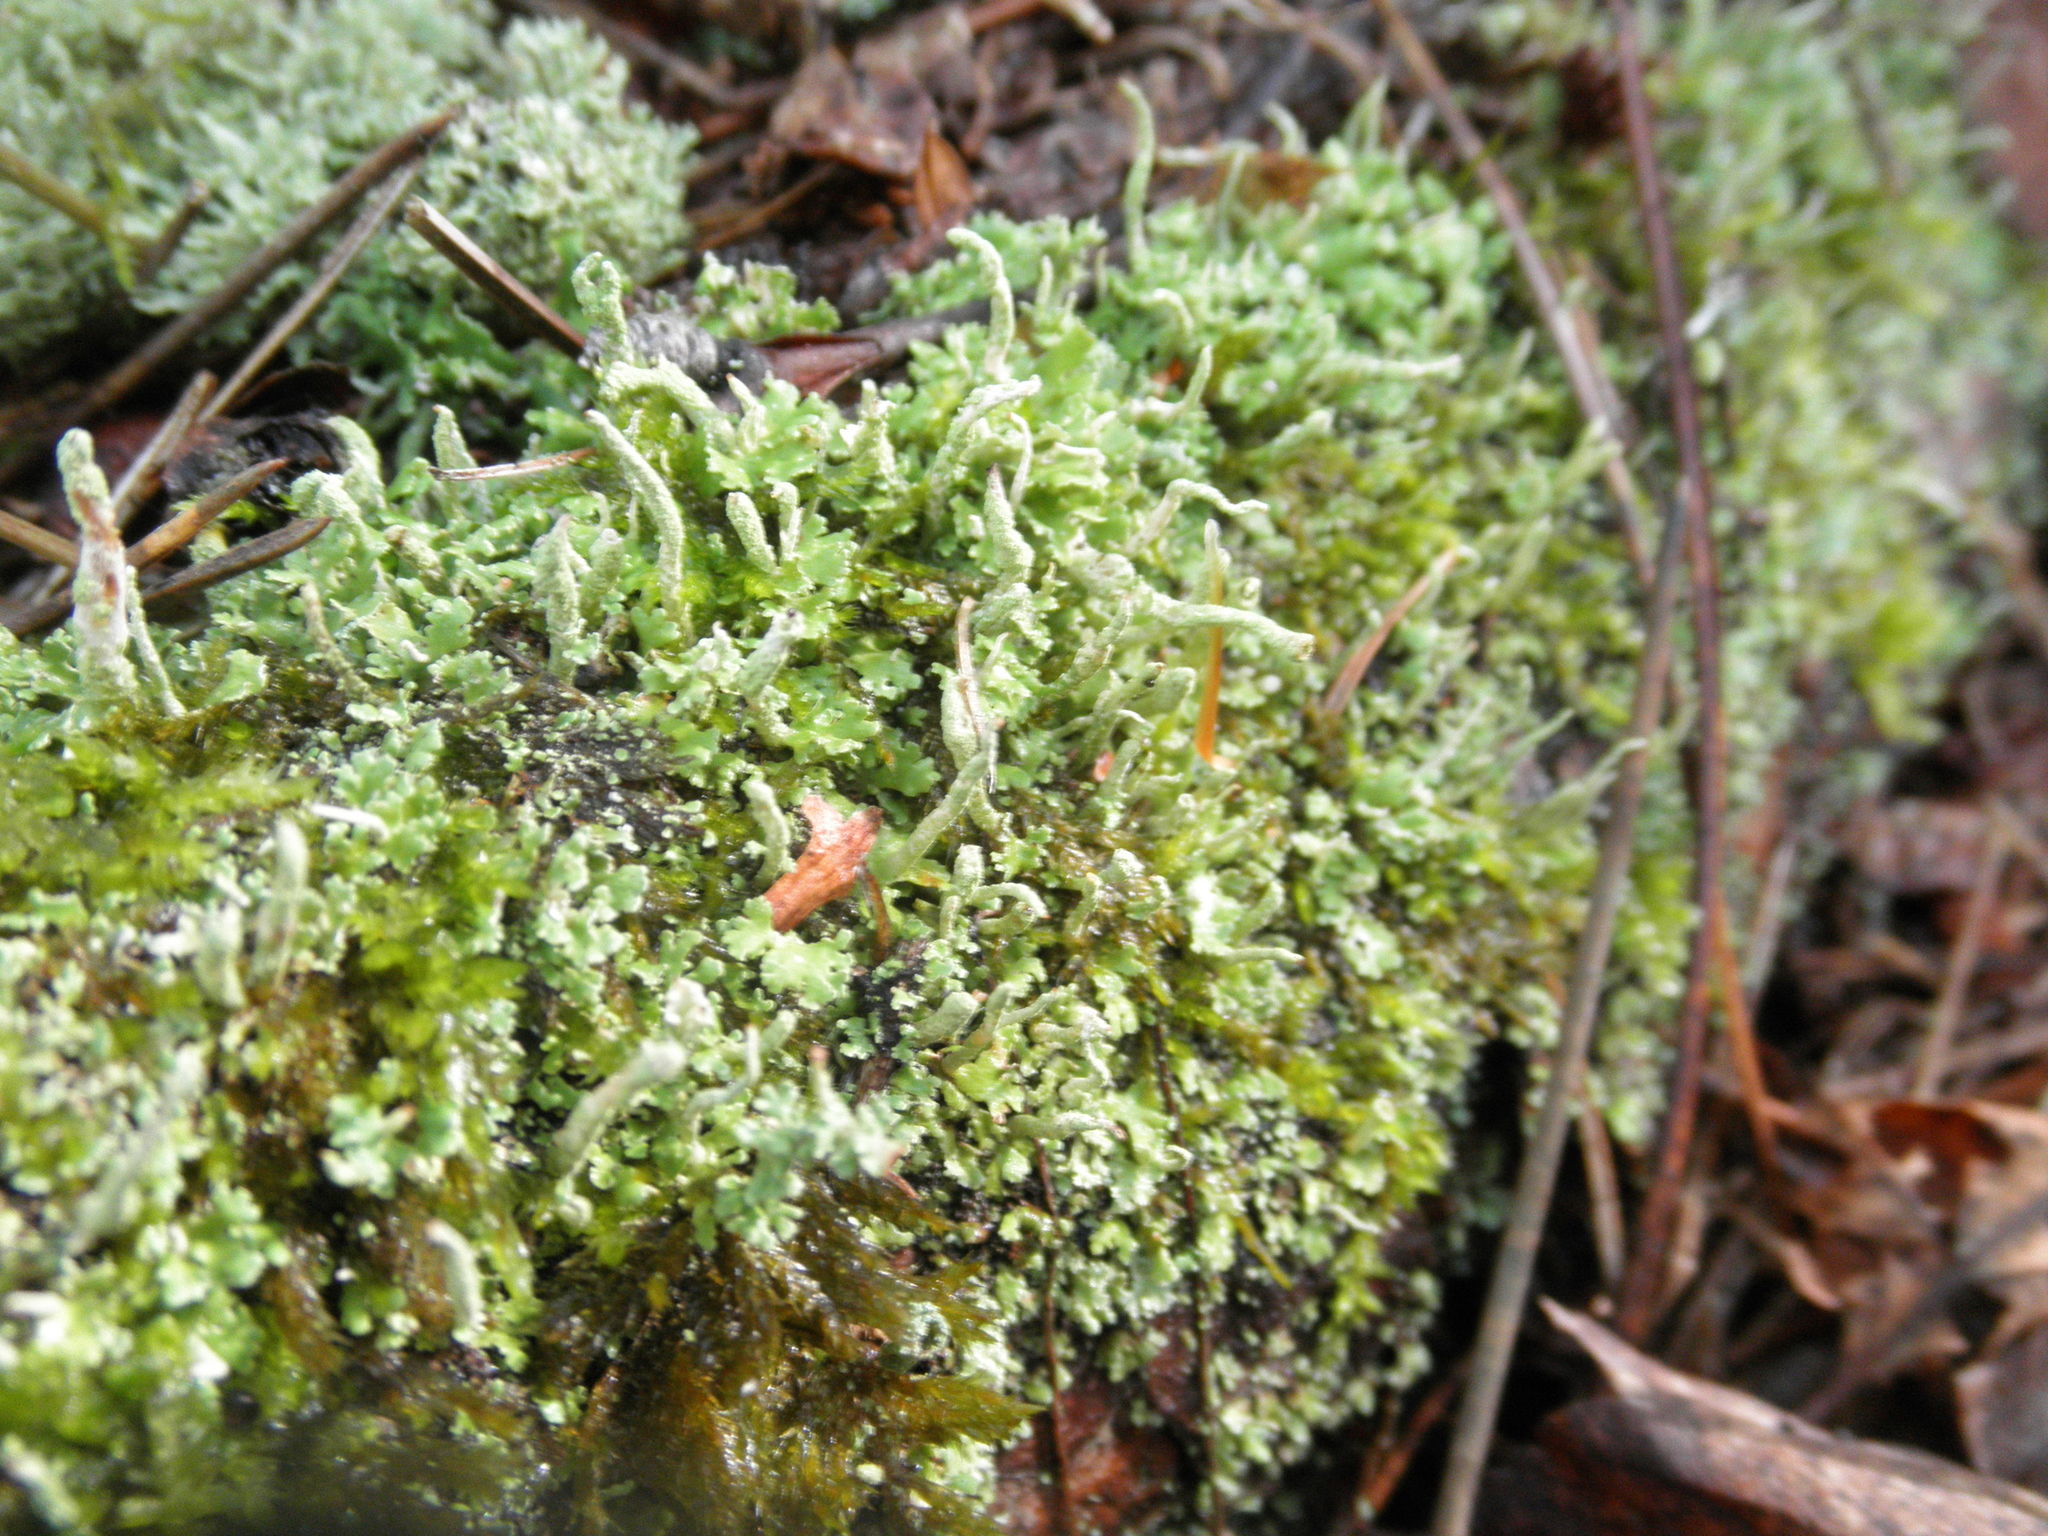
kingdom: Fungi
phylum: Ascomycota
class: Lecanoromycetes
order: Lecanorales
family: Cladoniaceae
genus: Cladonia
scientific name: Cladonia coniocraea
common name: Common powderhorn
